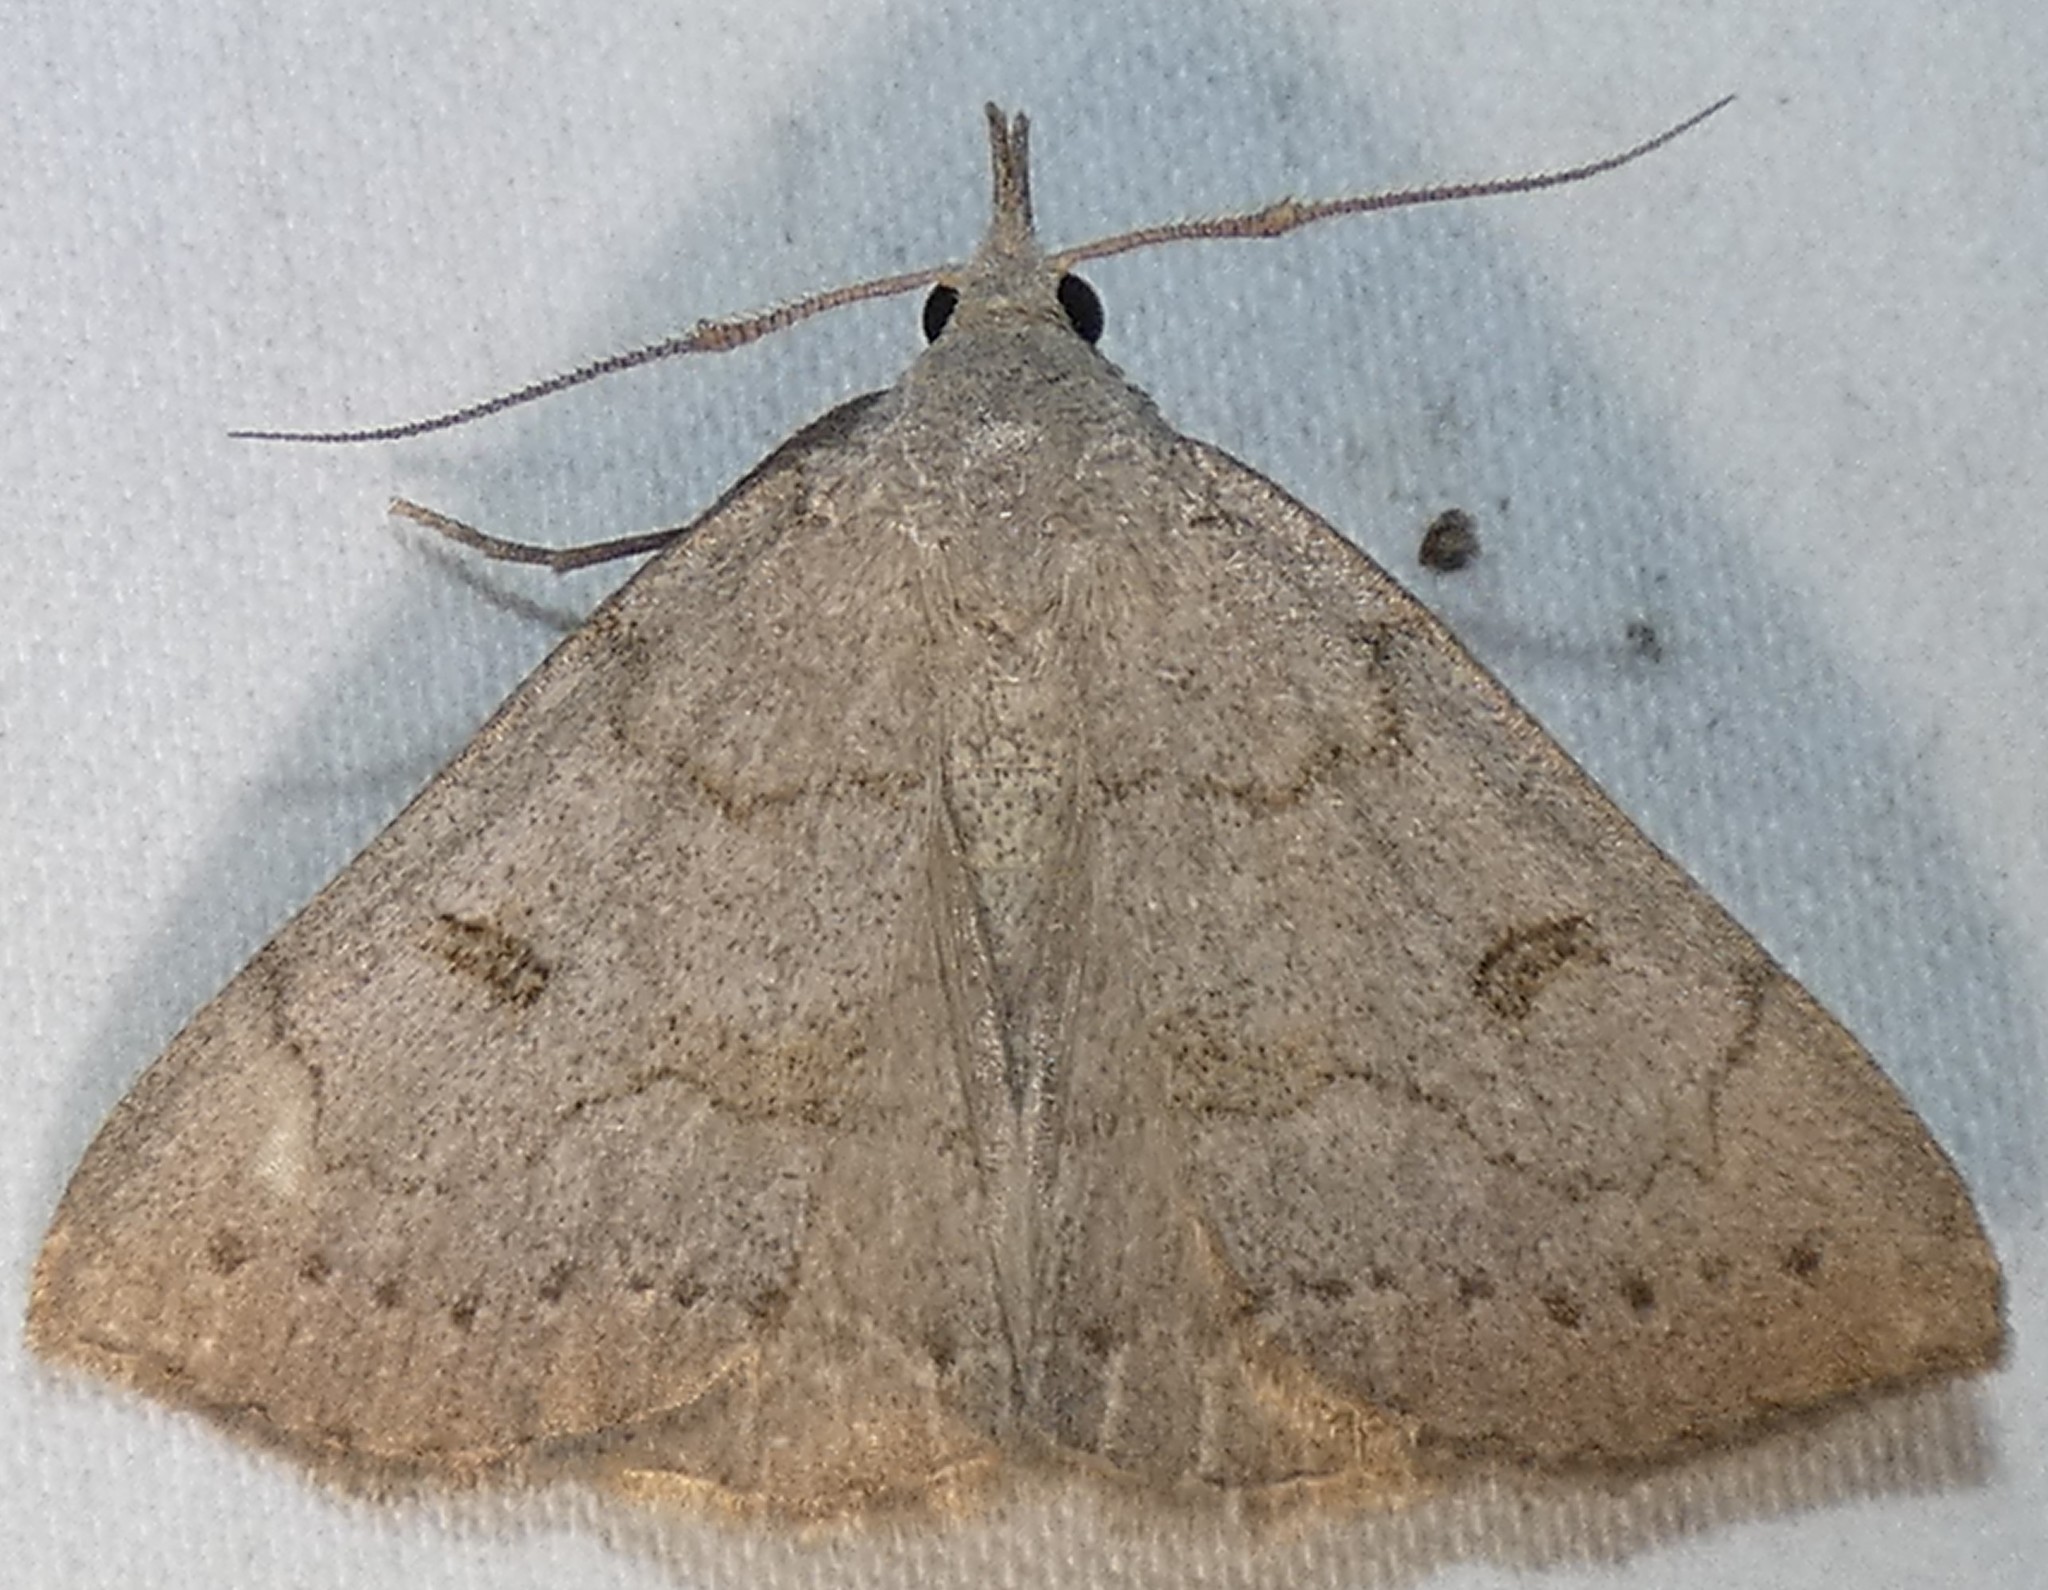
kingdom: Animalia
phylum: Arthropoda
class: Insecta
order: Lepidoptera
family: Erebidae
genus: Macrochilo
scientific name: Macrochilo morbidalis
